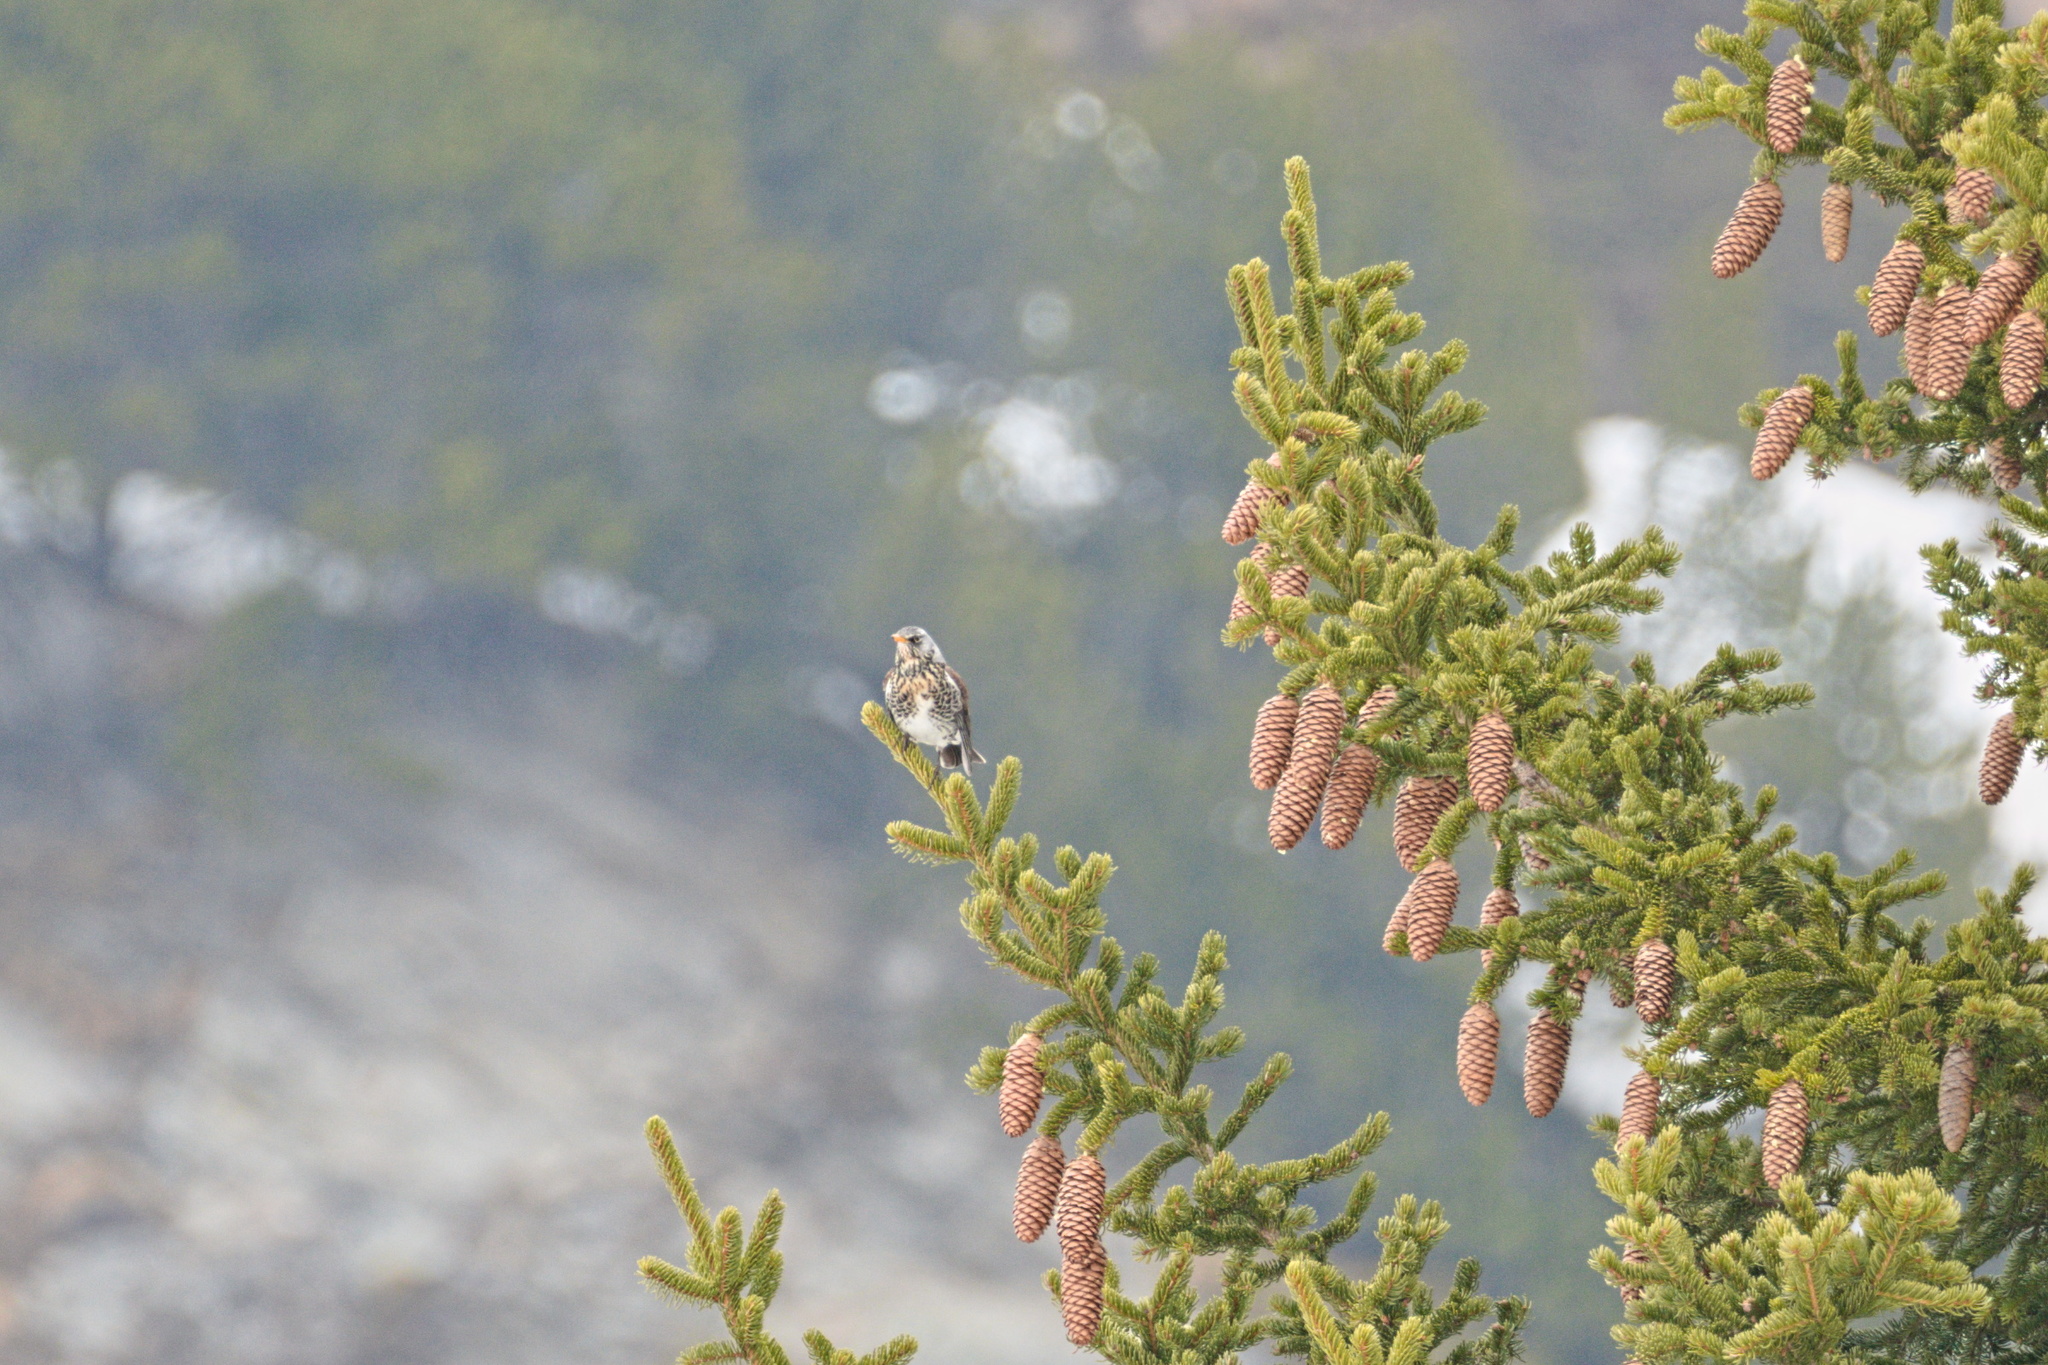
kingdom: Animalia
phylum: Chordata
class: Aves
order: Passeriformes
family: Turdidae
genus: Turdus
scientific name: Turdus pilaris
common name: Fieldfare
